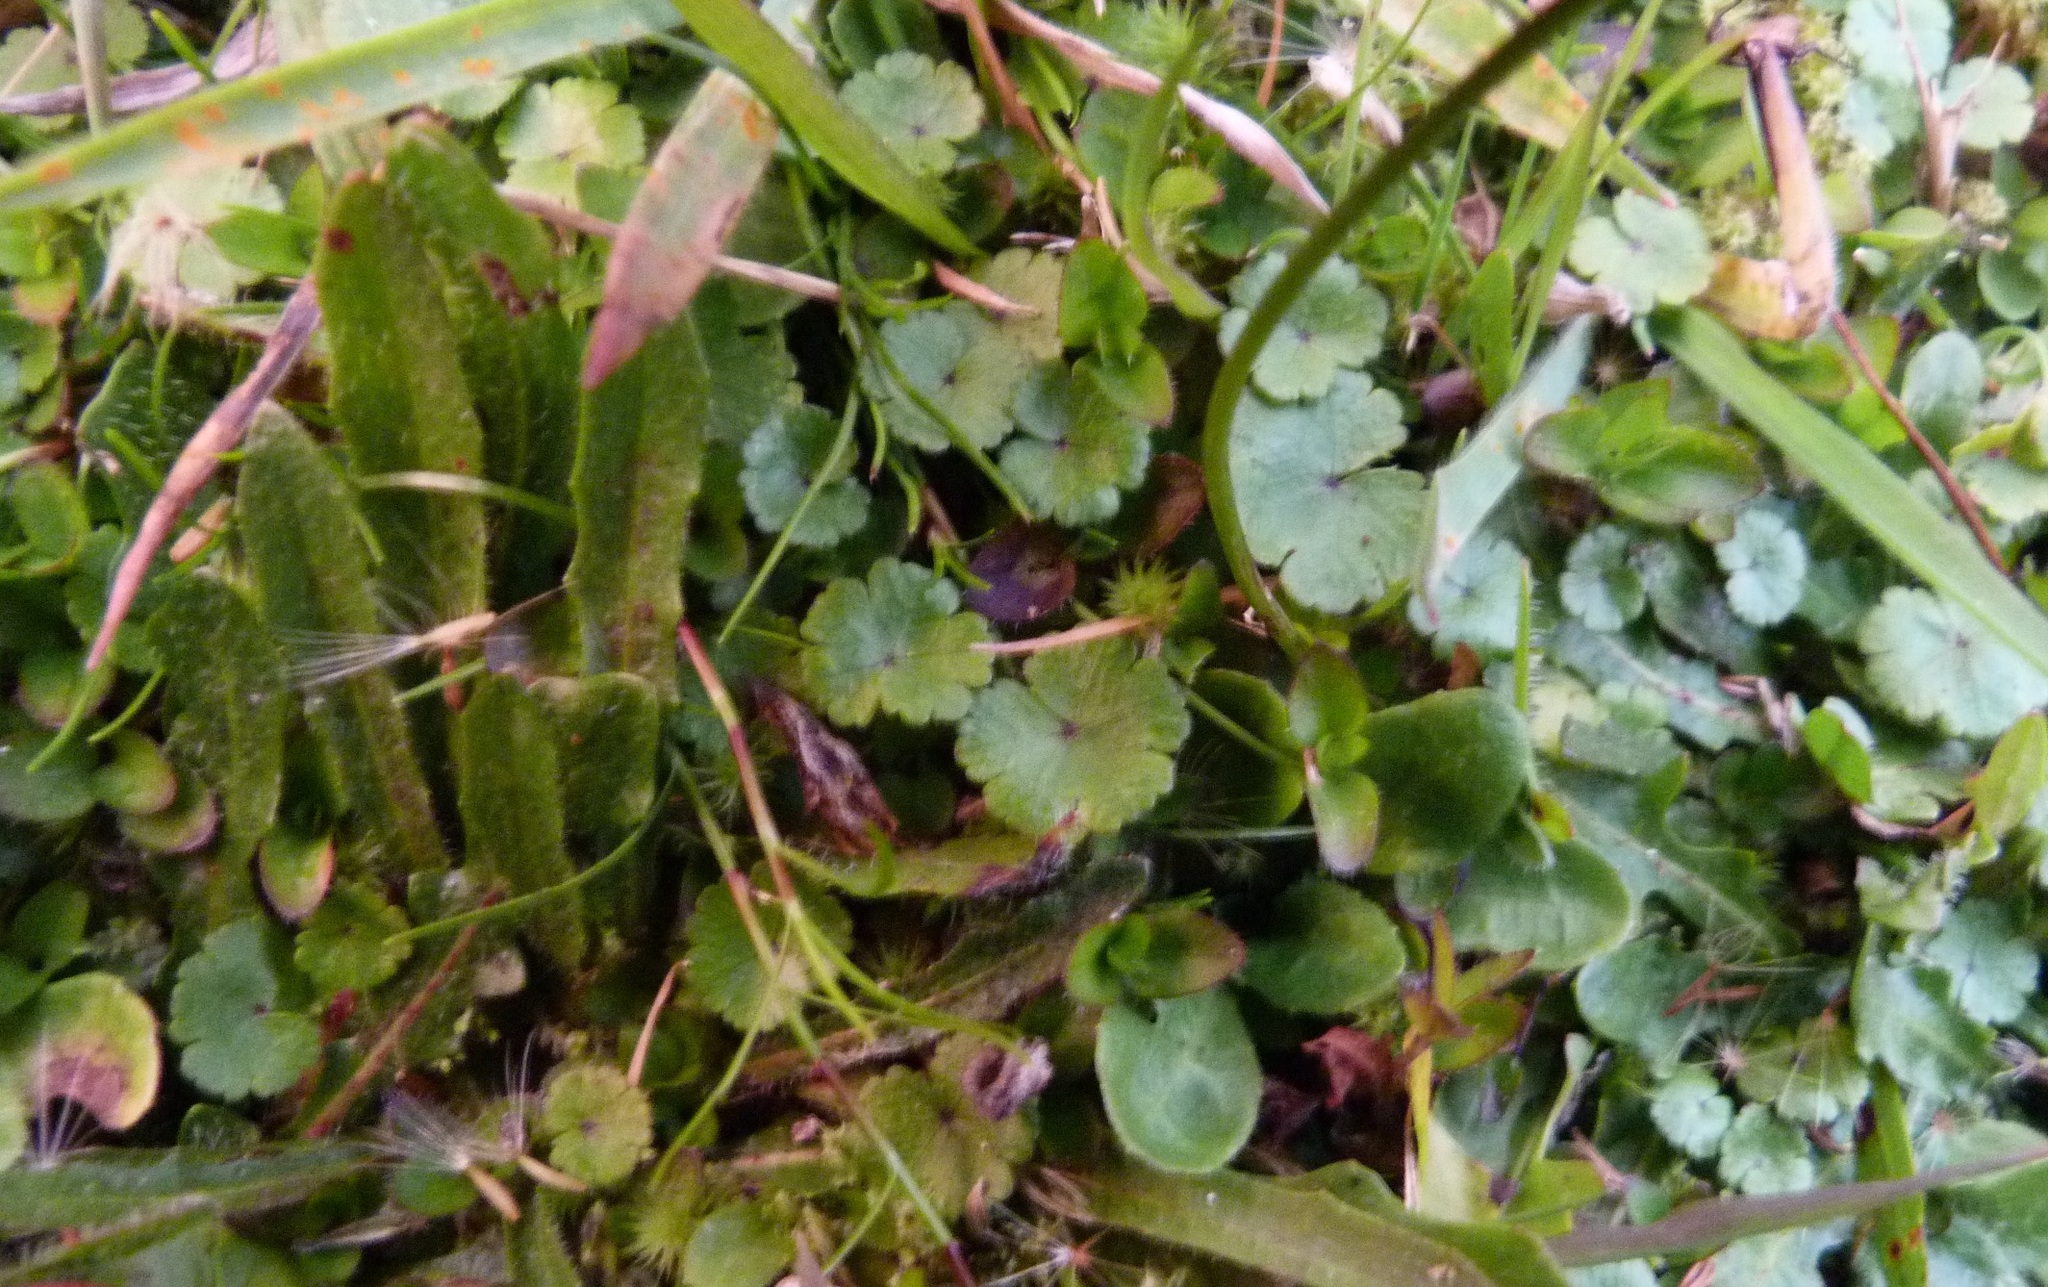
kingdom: Plantae
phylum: Tracheophyta
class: Magnoliopsida
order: Apiales
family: Araliaceae
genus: Hydrocotyle
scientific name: Hydrocotyle microphylla
